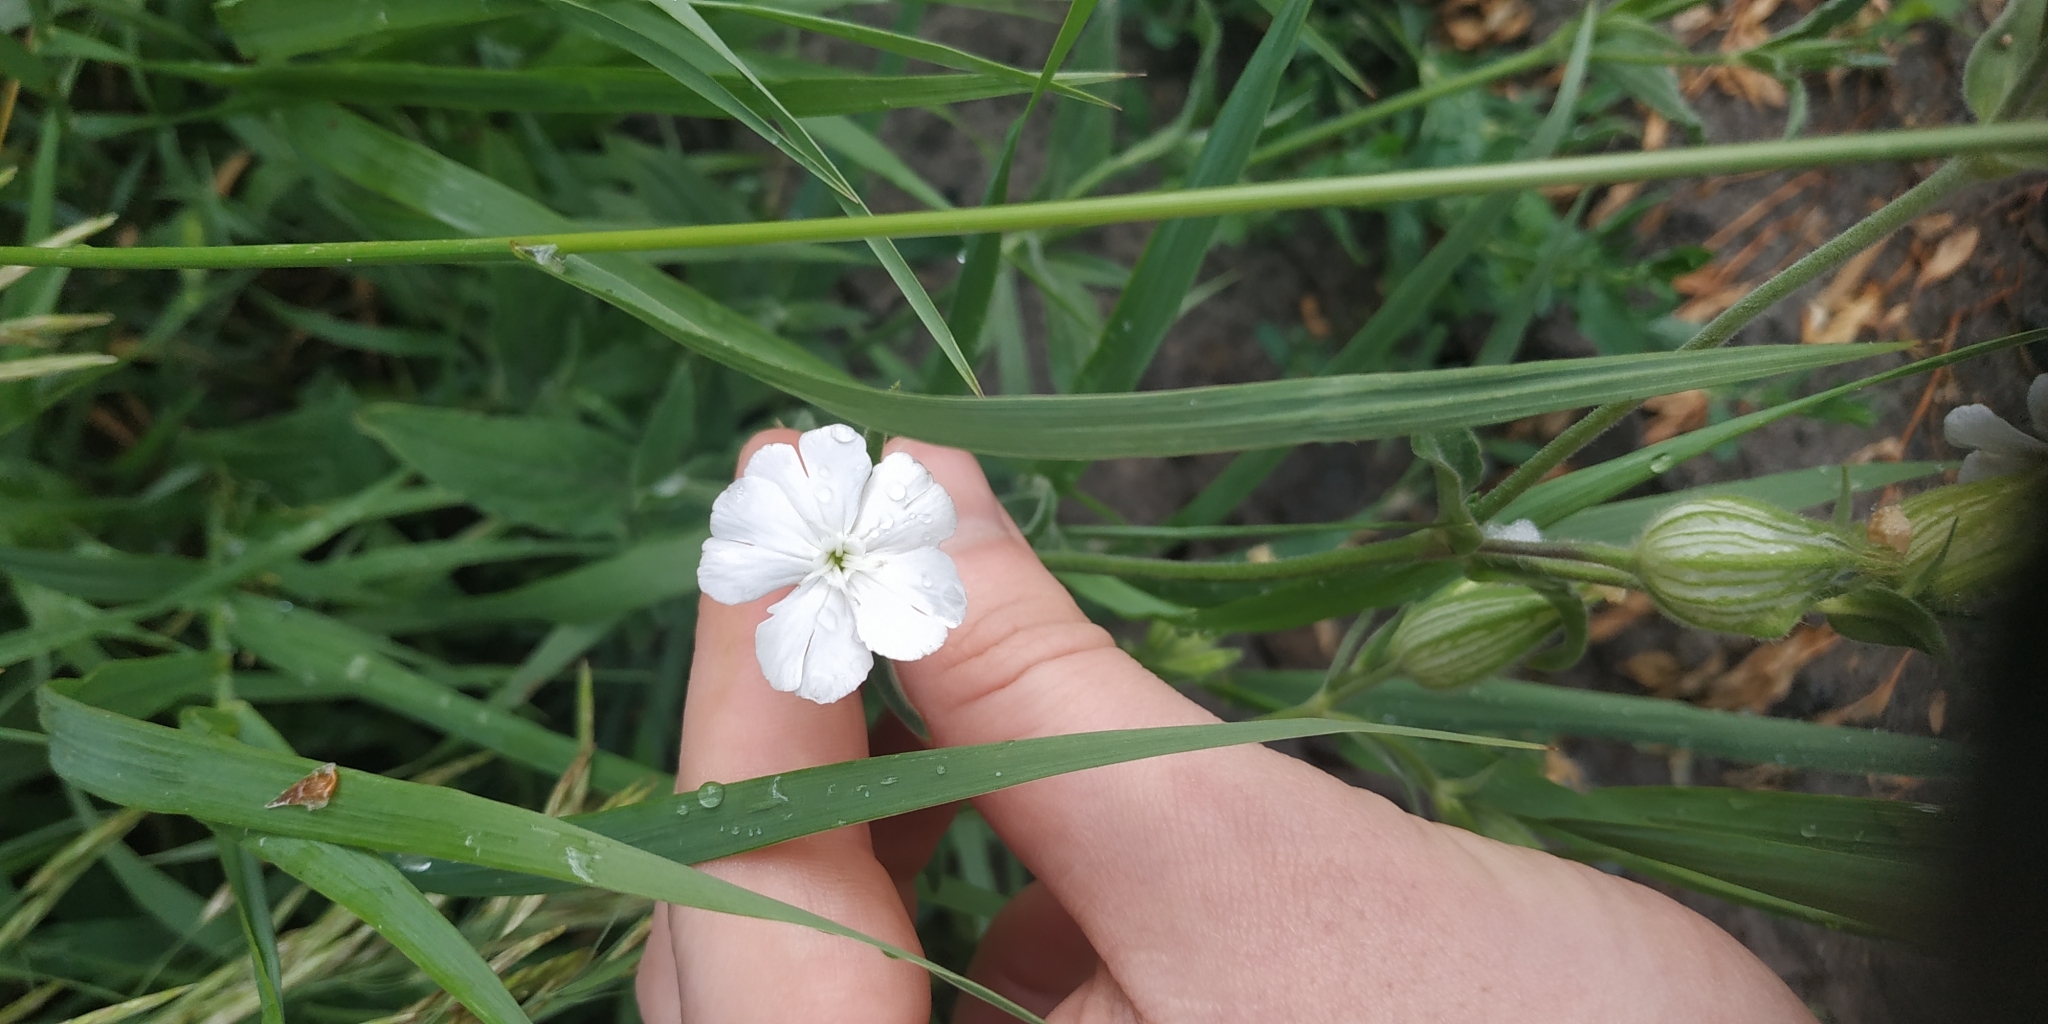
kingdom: Plantae
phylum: Tracheophyta
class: Magnoliopsida
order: Caryophyllales
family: Caryophyllaceae
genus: Silene
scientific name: Silene latifolia
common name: White campion
